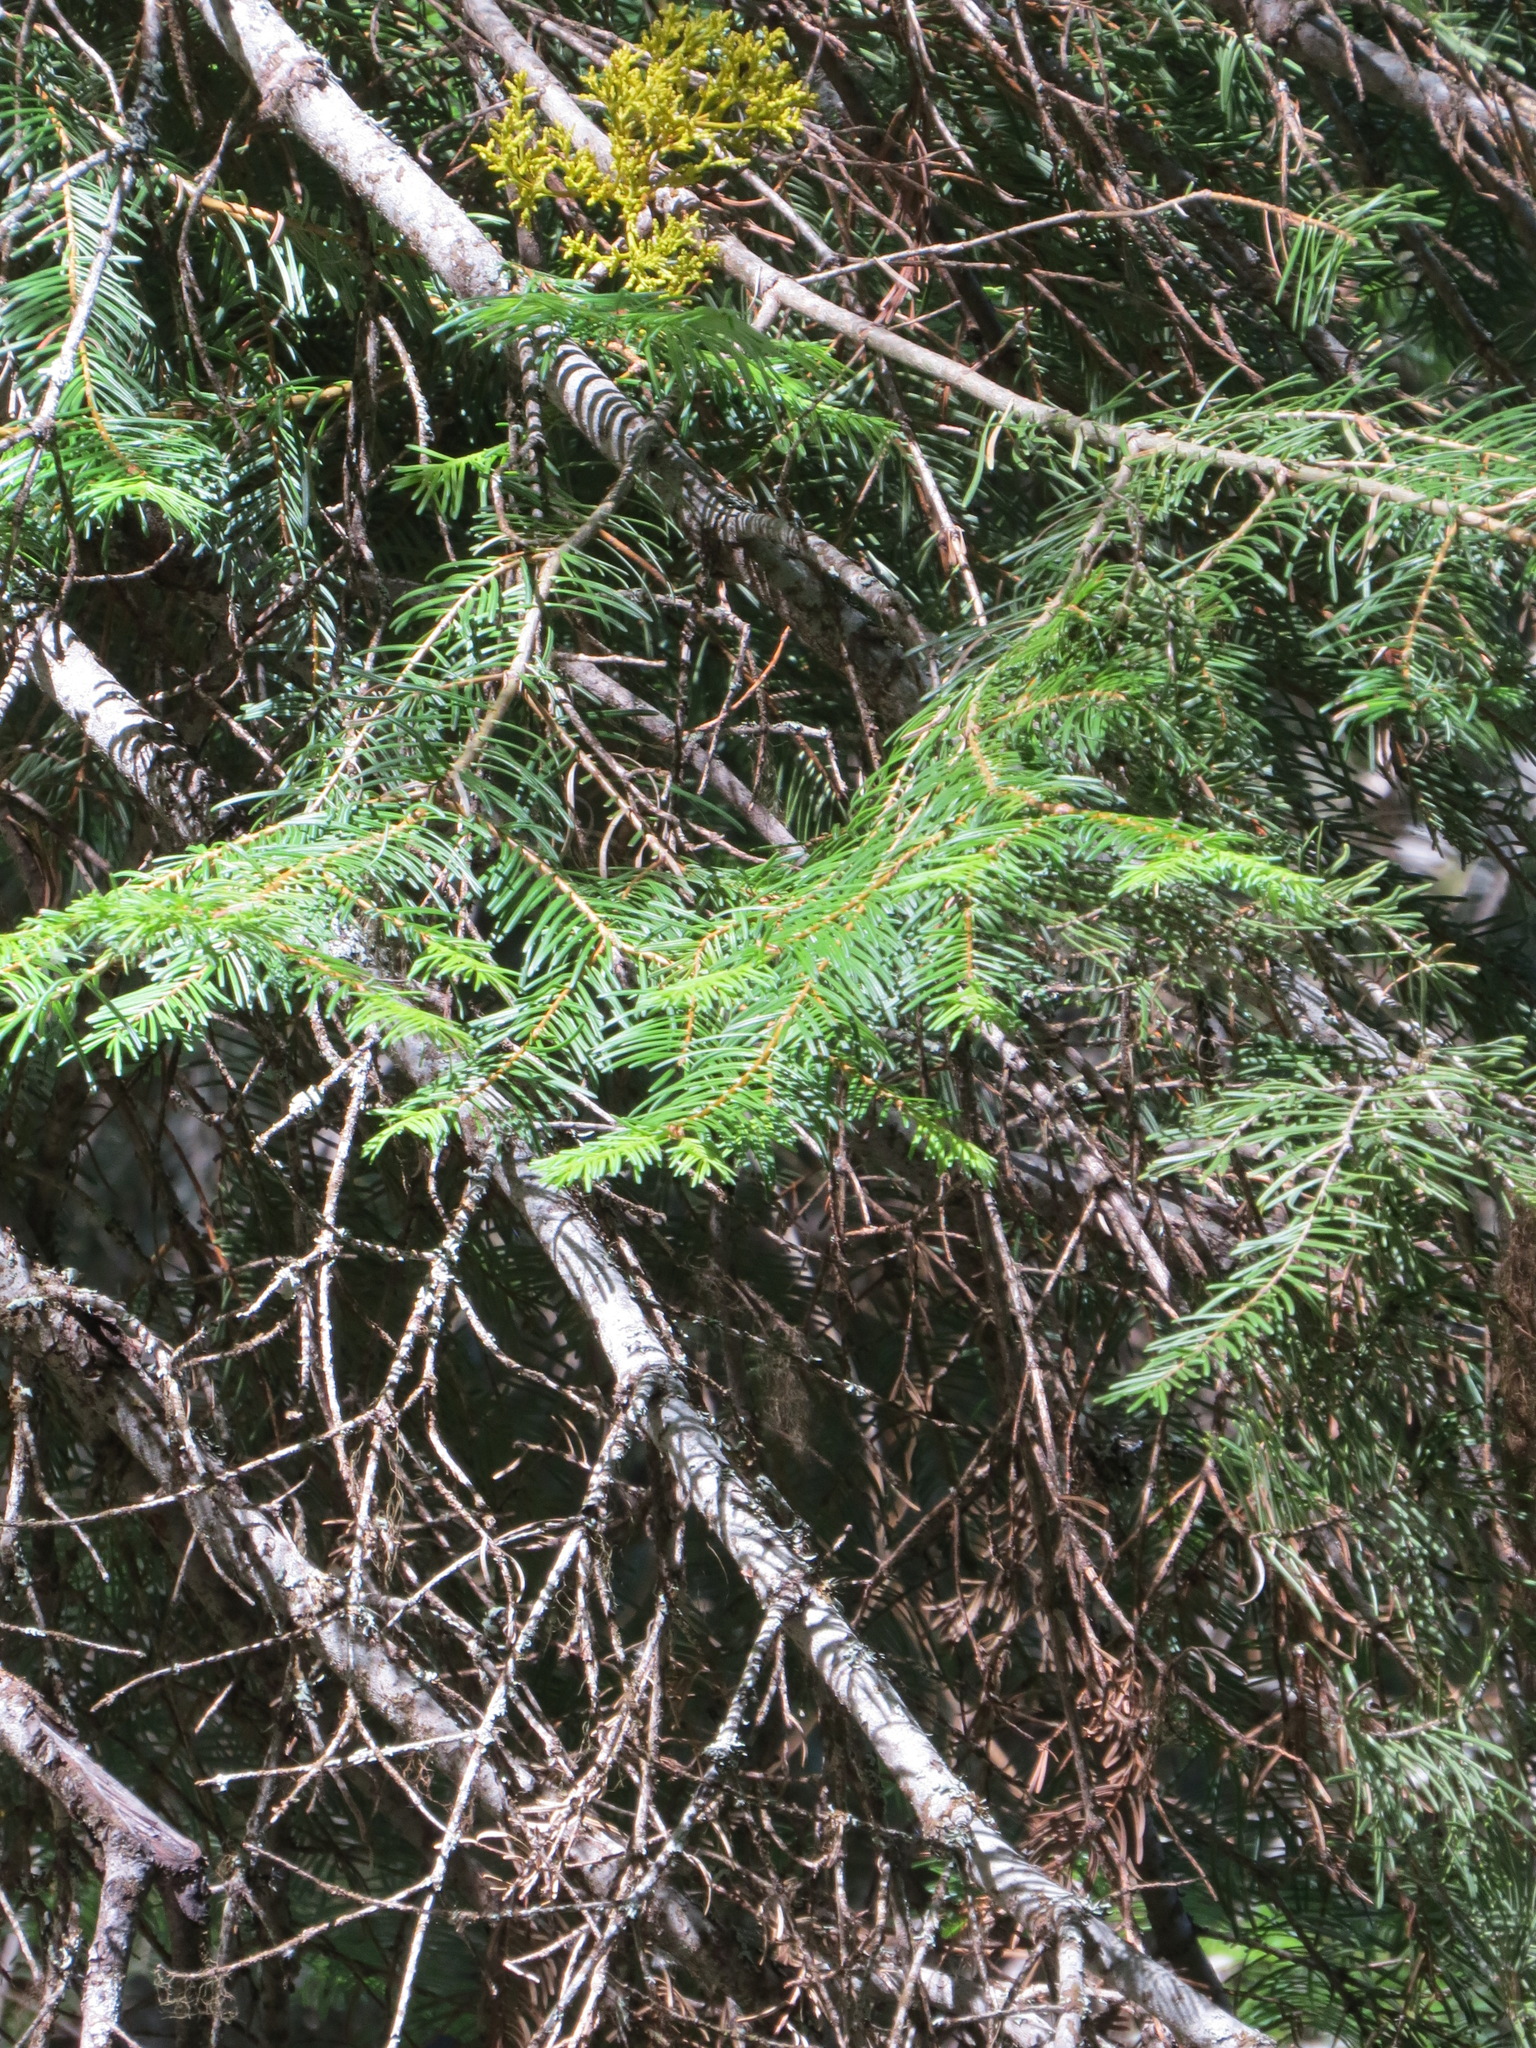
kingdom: Plantae
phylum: Tracheophyta
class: Pinopsida
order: Pinales
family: Pinaceae
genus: Abies
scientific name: Abies concolor
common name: Colorado fir
